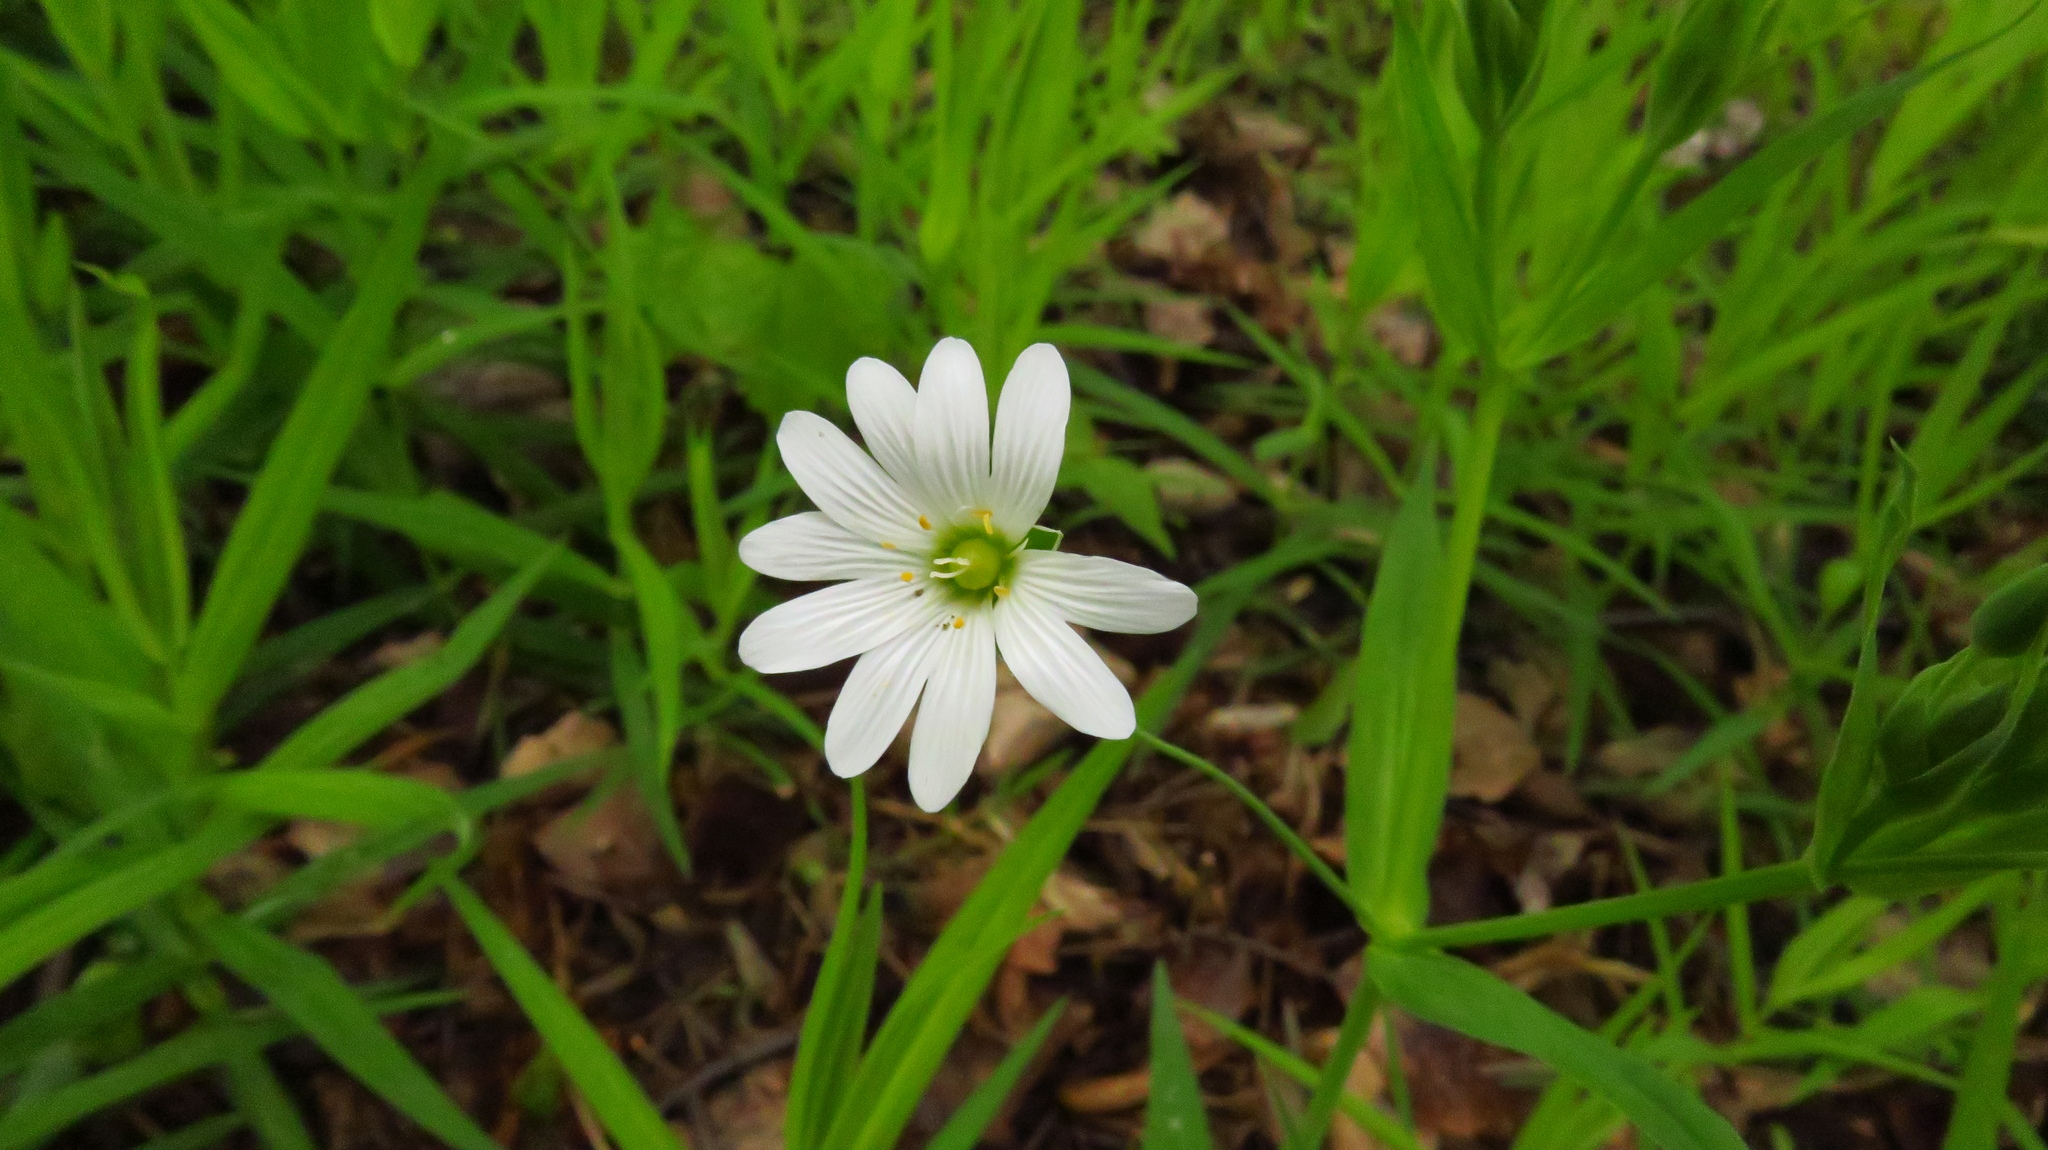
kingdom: Plantae
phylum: Tracheophyta
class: Magnoliopsida
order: Caryophyllales
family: Caryophyllaceae
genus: Rabelera
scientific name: Rabelera holostea
